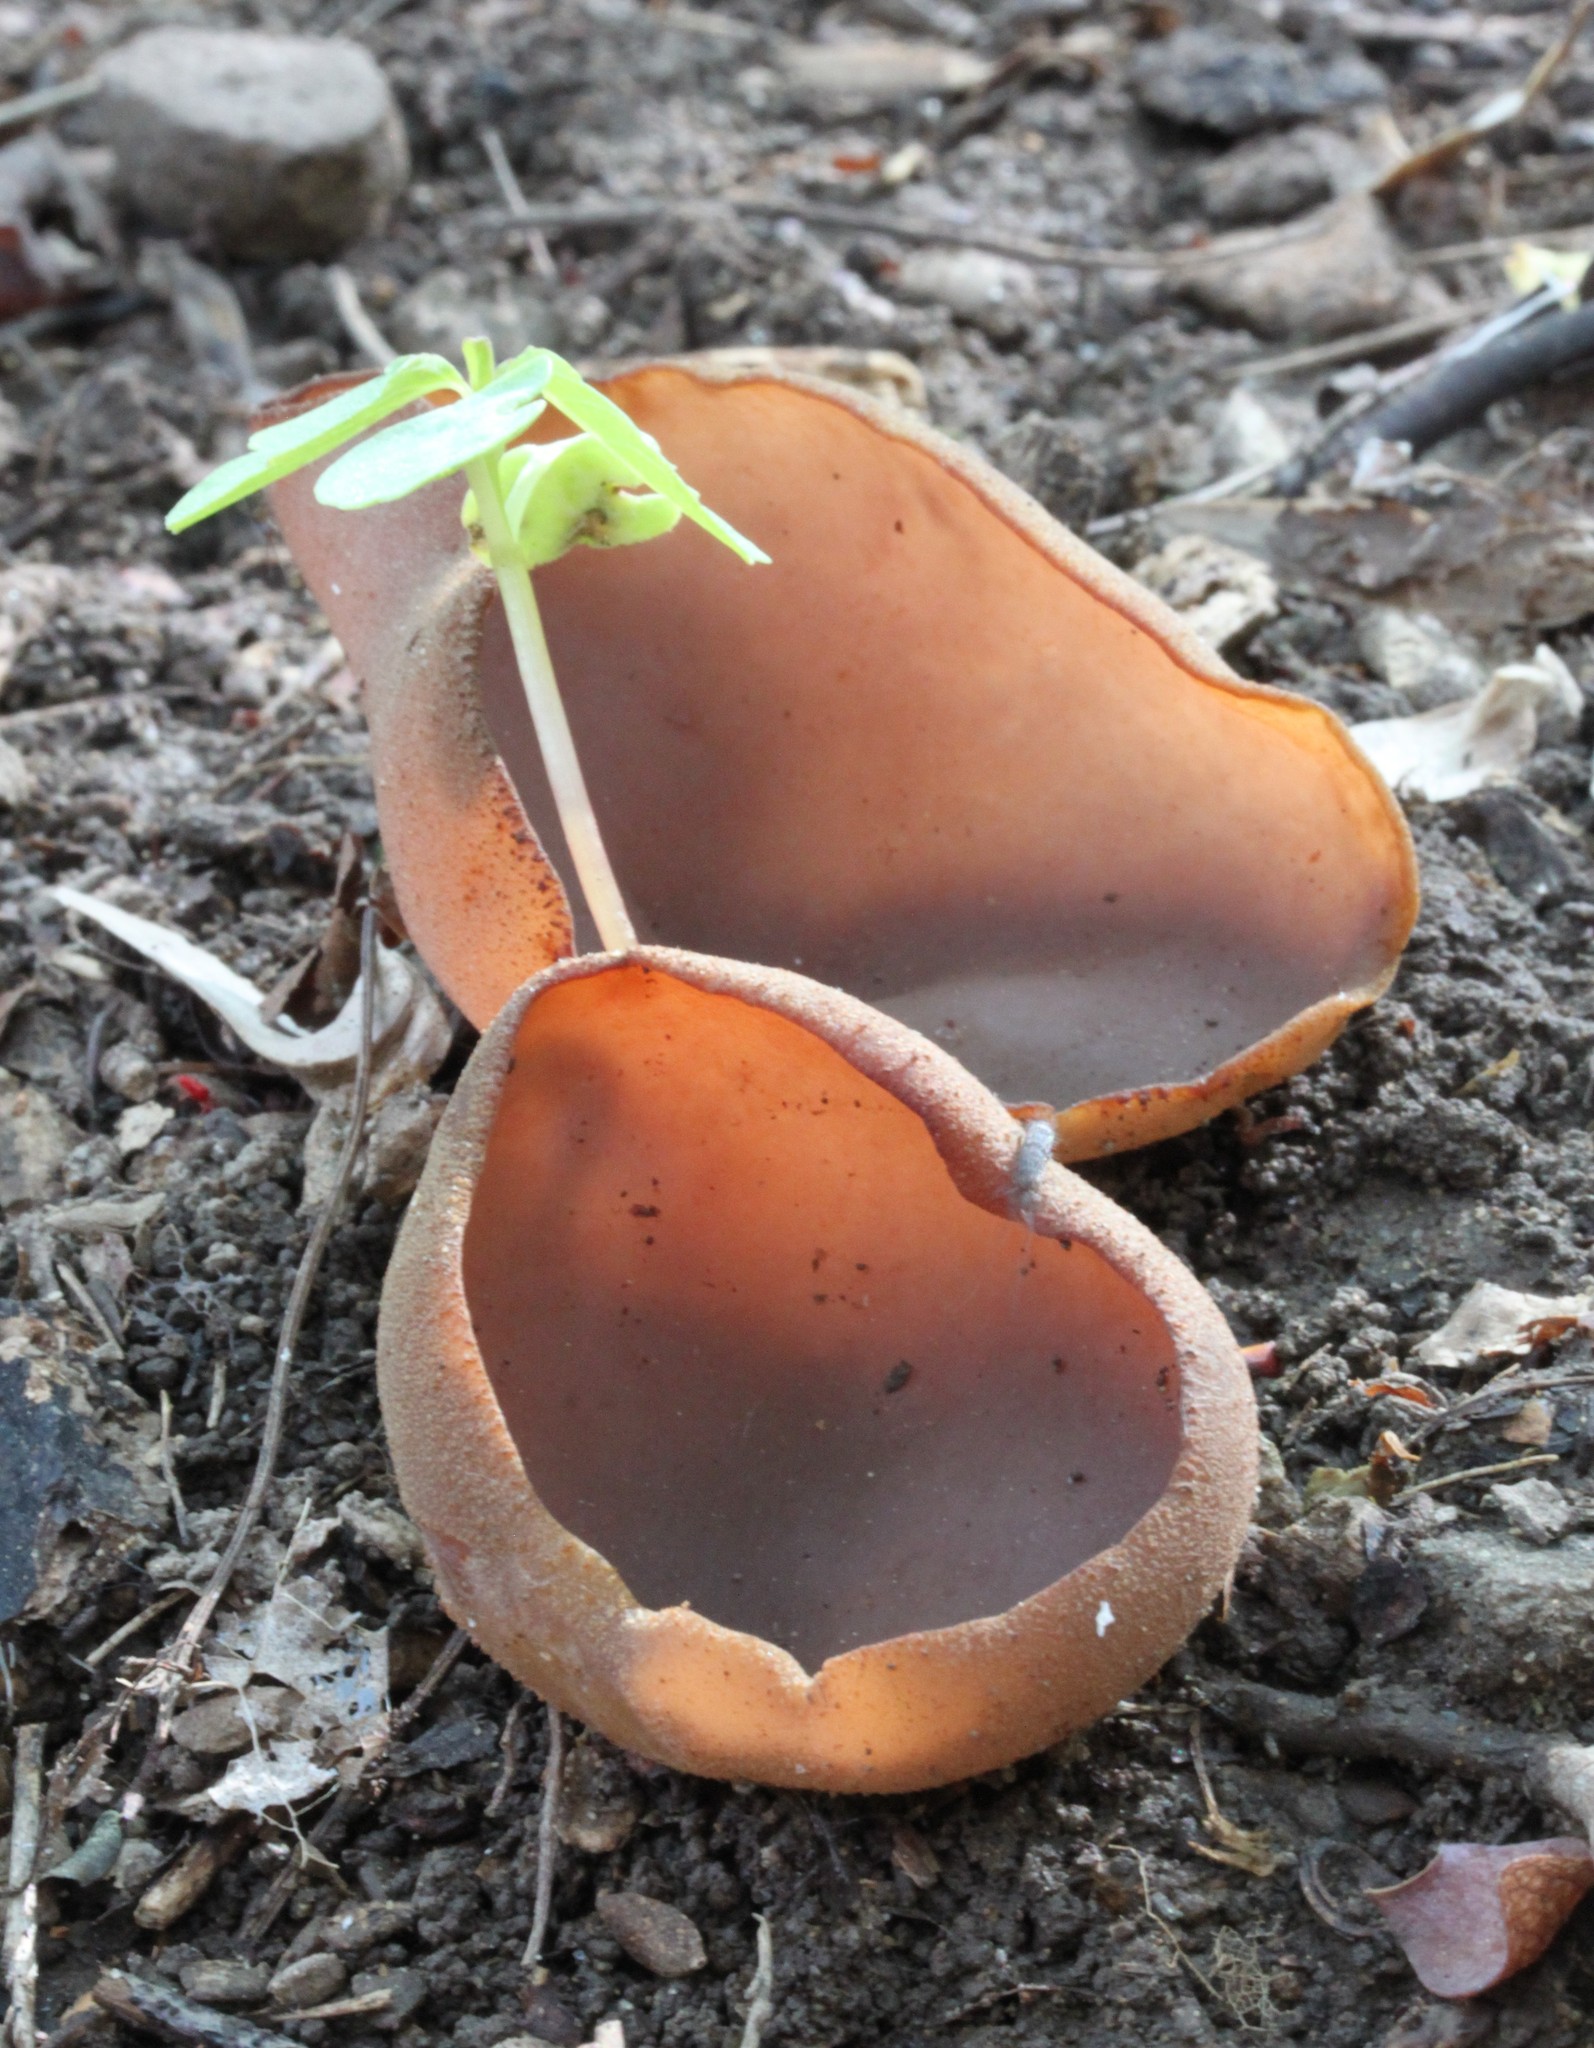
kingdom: Fungi
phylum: Ascomycota
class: Pezizomycetes
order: Pezizales
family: Pezizaceae
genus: Phylloscypha
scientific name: Phylloscypha phyllogena
